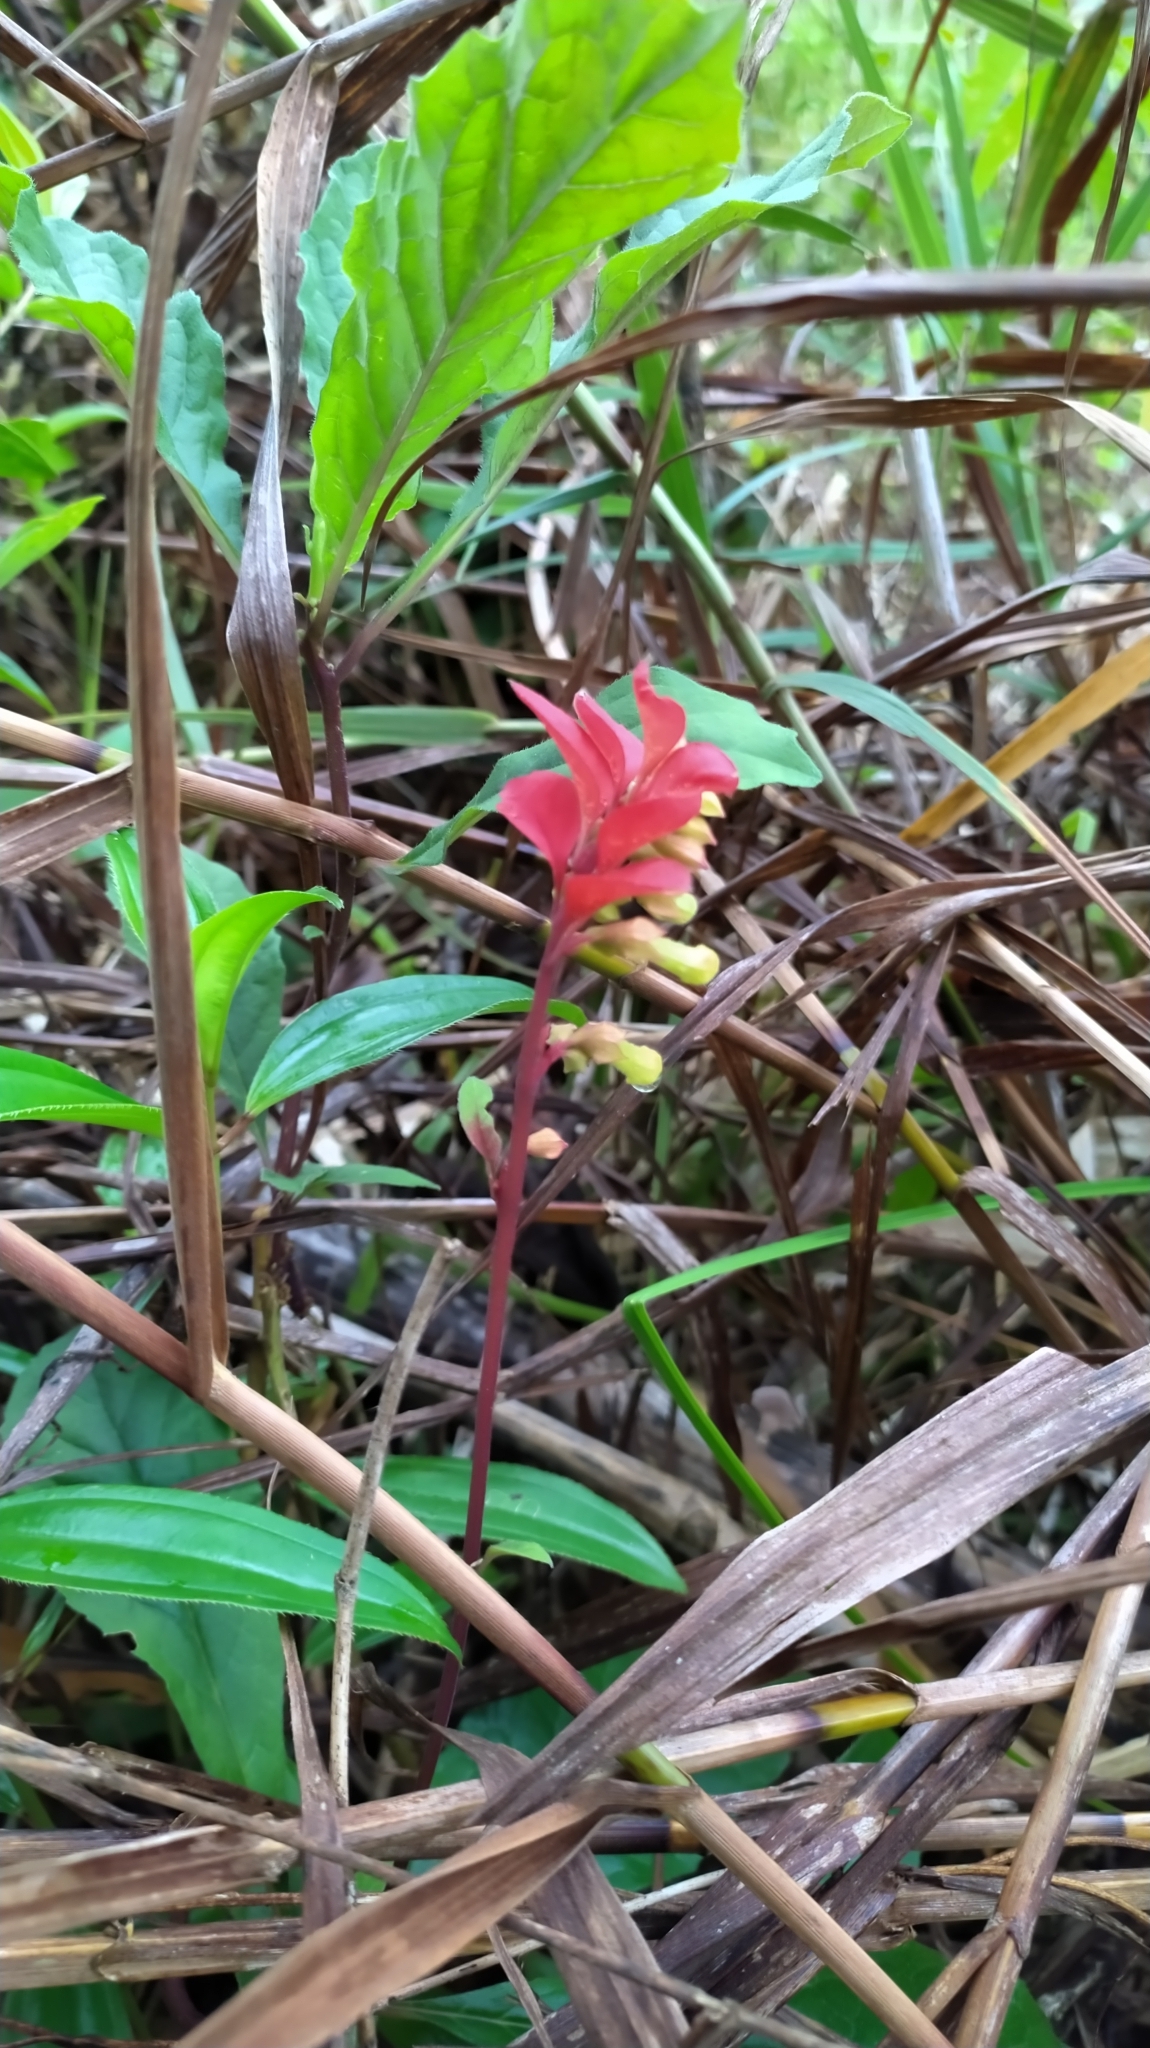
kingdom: Plantae
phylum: Tracheophyta
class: Magnoliopsida
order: Lamiales
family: Lamiaceae
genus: Amasonia
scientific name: Amasonia campestris
